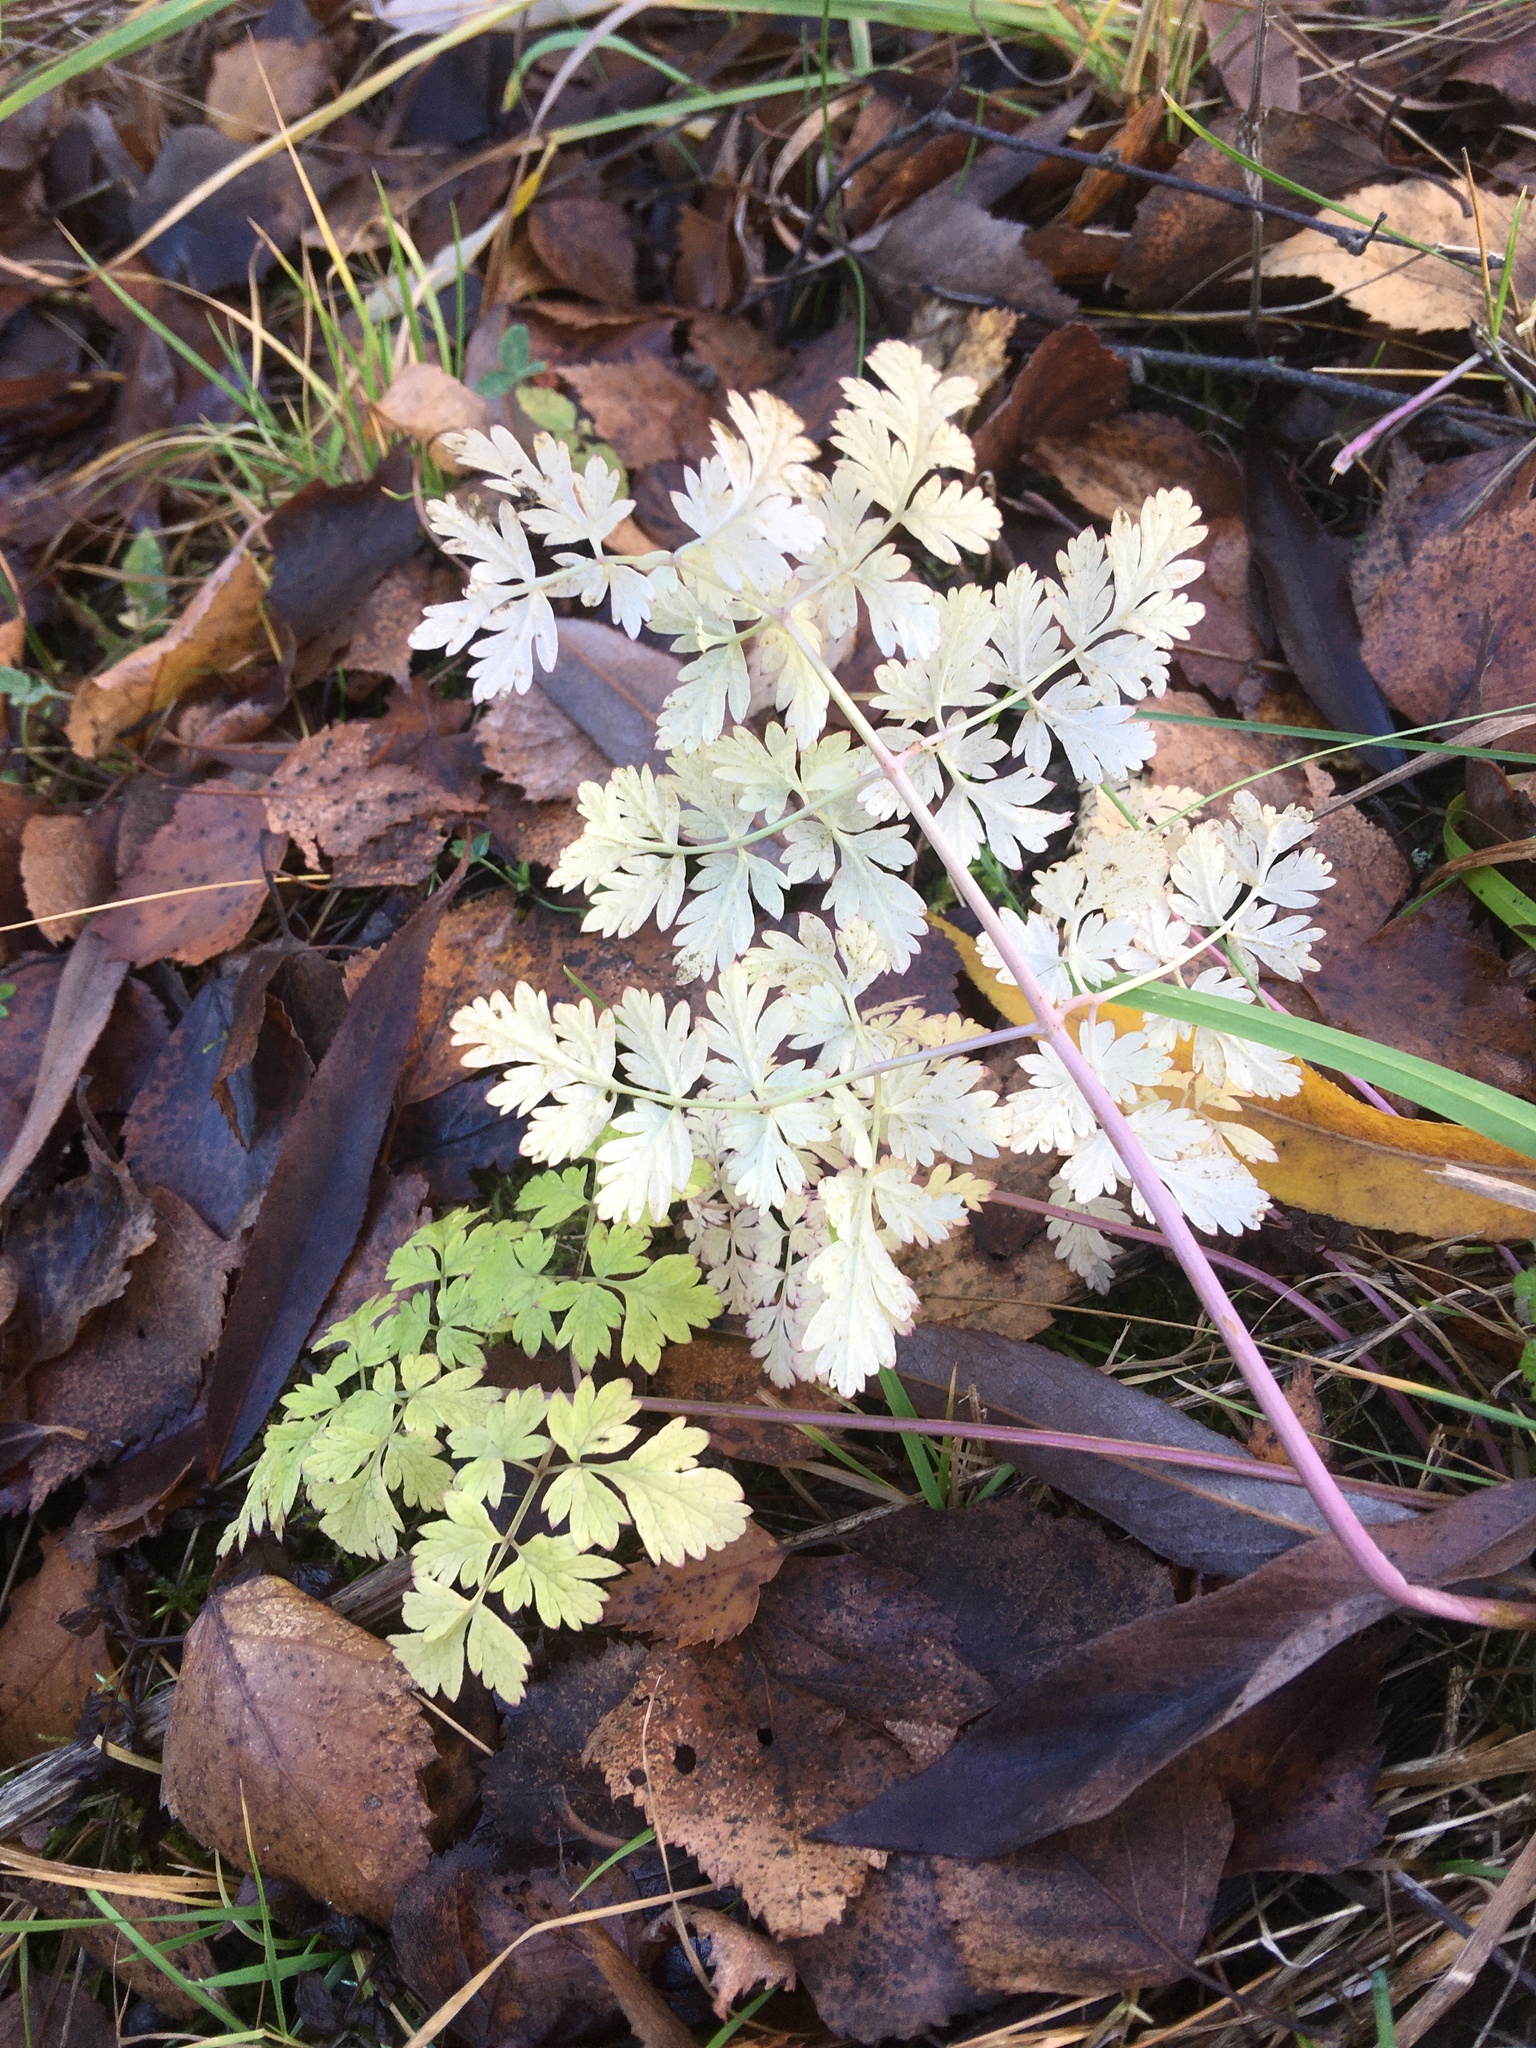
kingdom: Plantae
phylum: Tracheophyta
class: Magnoliopsida
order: Apiales
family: Apiaceae
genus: Anthriscus
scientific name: Anthriscus sylvestris
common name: Cow parsley
